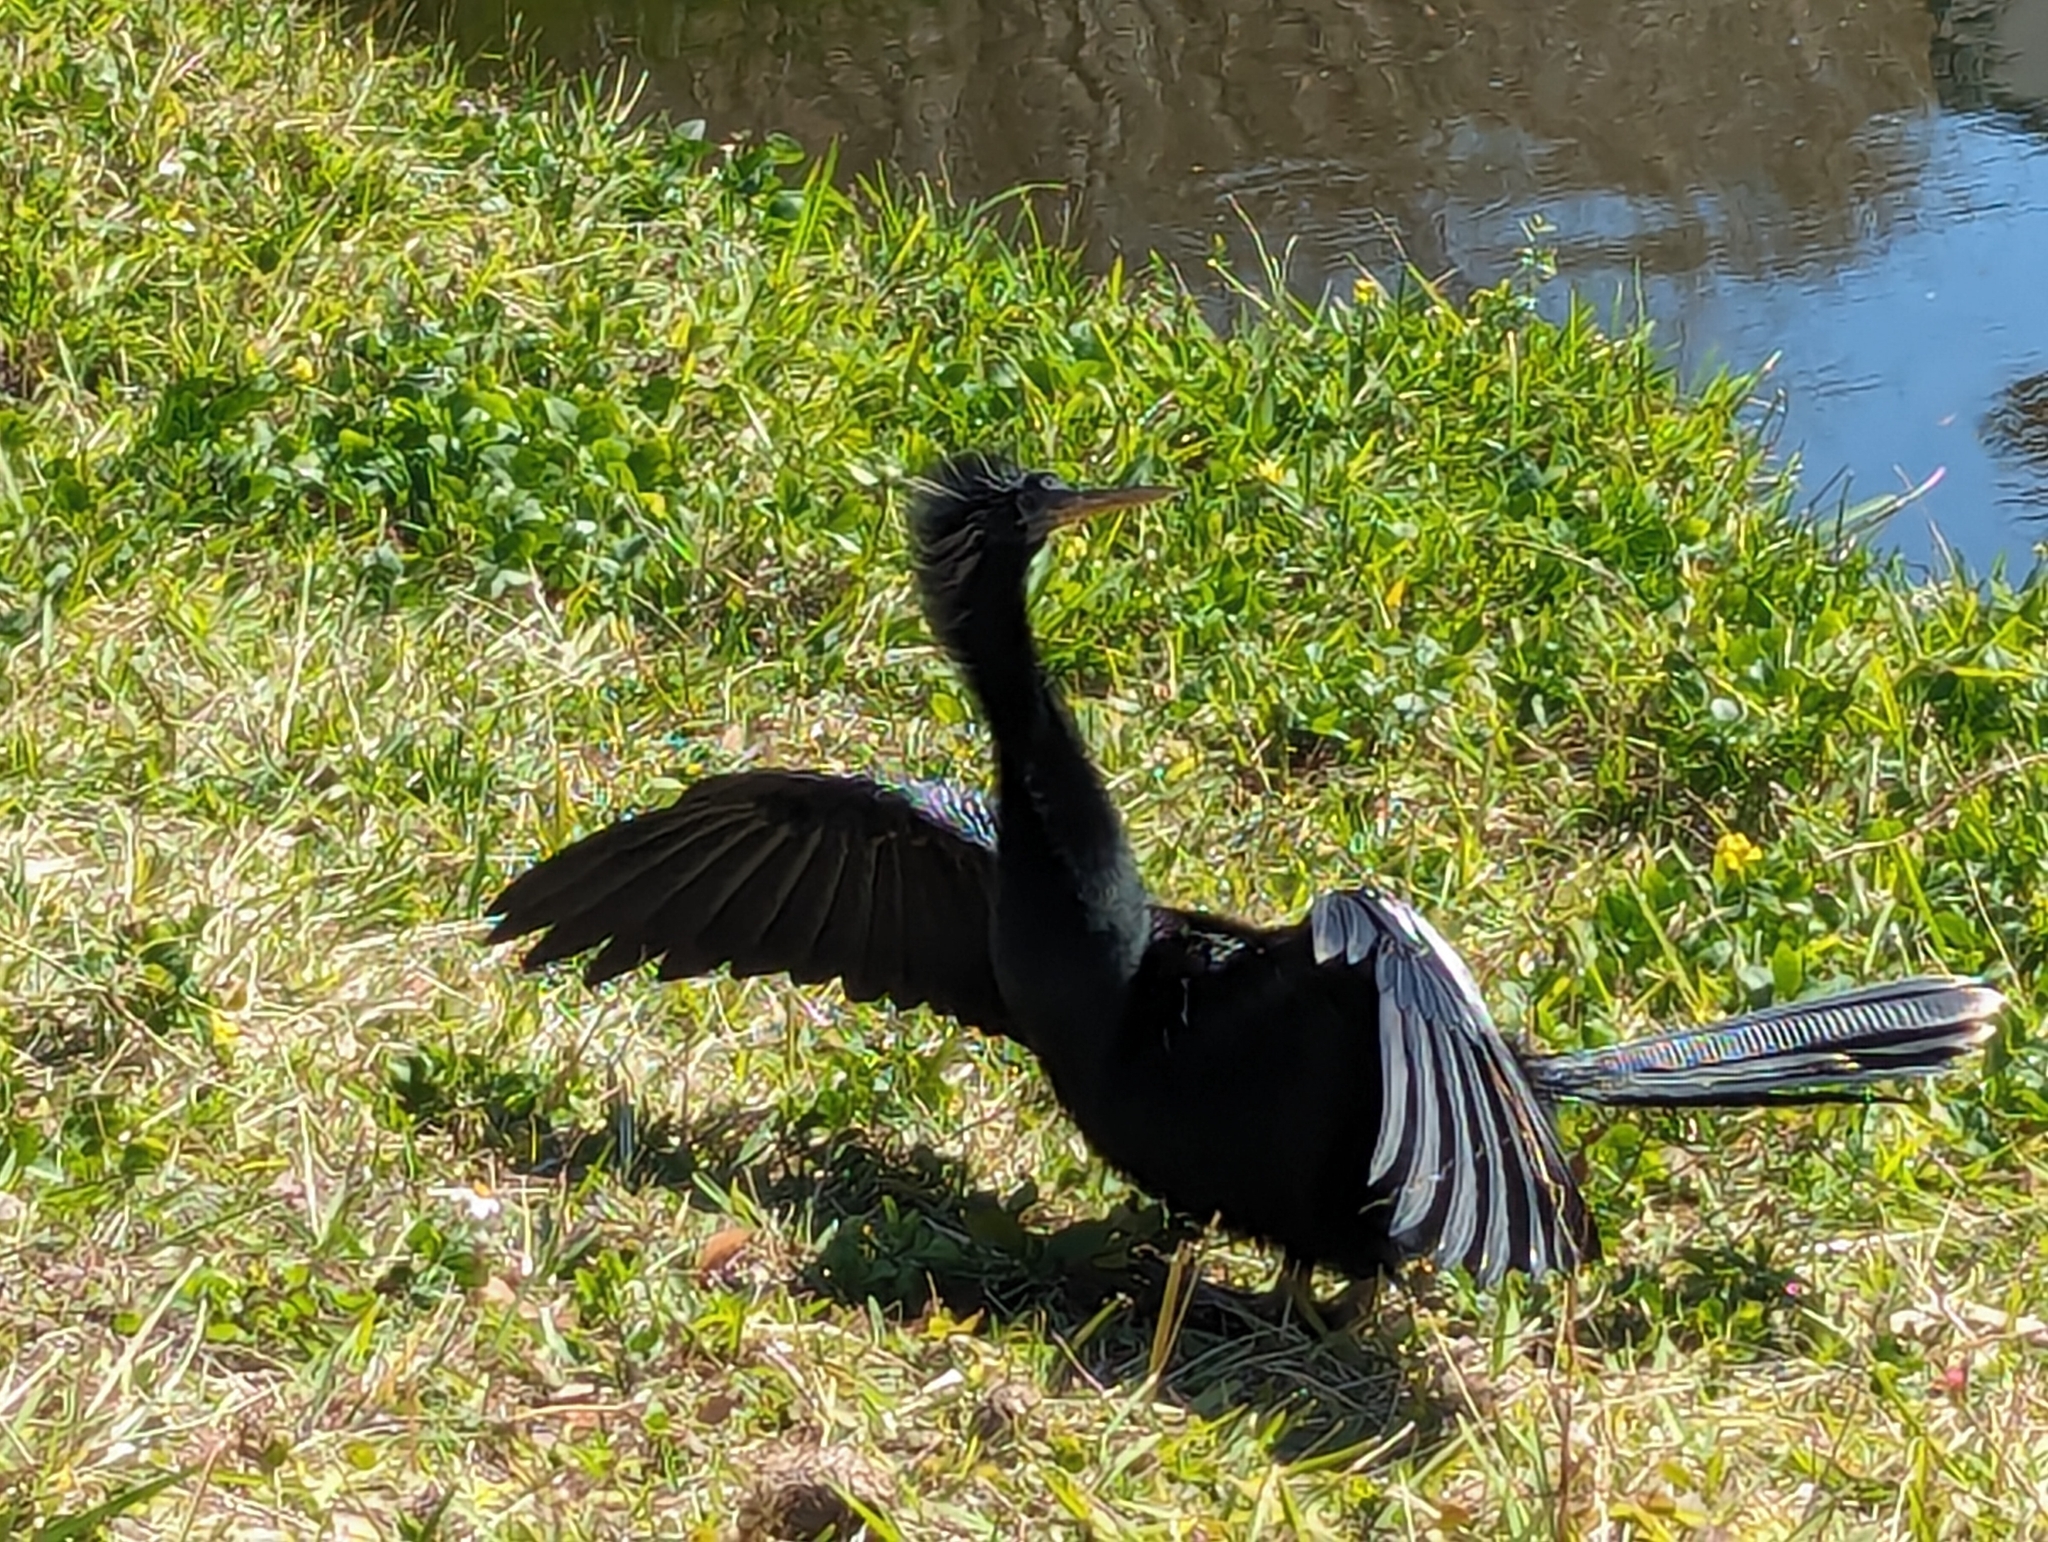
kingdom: Animalia
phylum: Chordata
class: Aves
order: Suliformes
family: Anhingidae
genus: Anhinga
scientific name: Anhinga anhinga
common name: Anhinga
